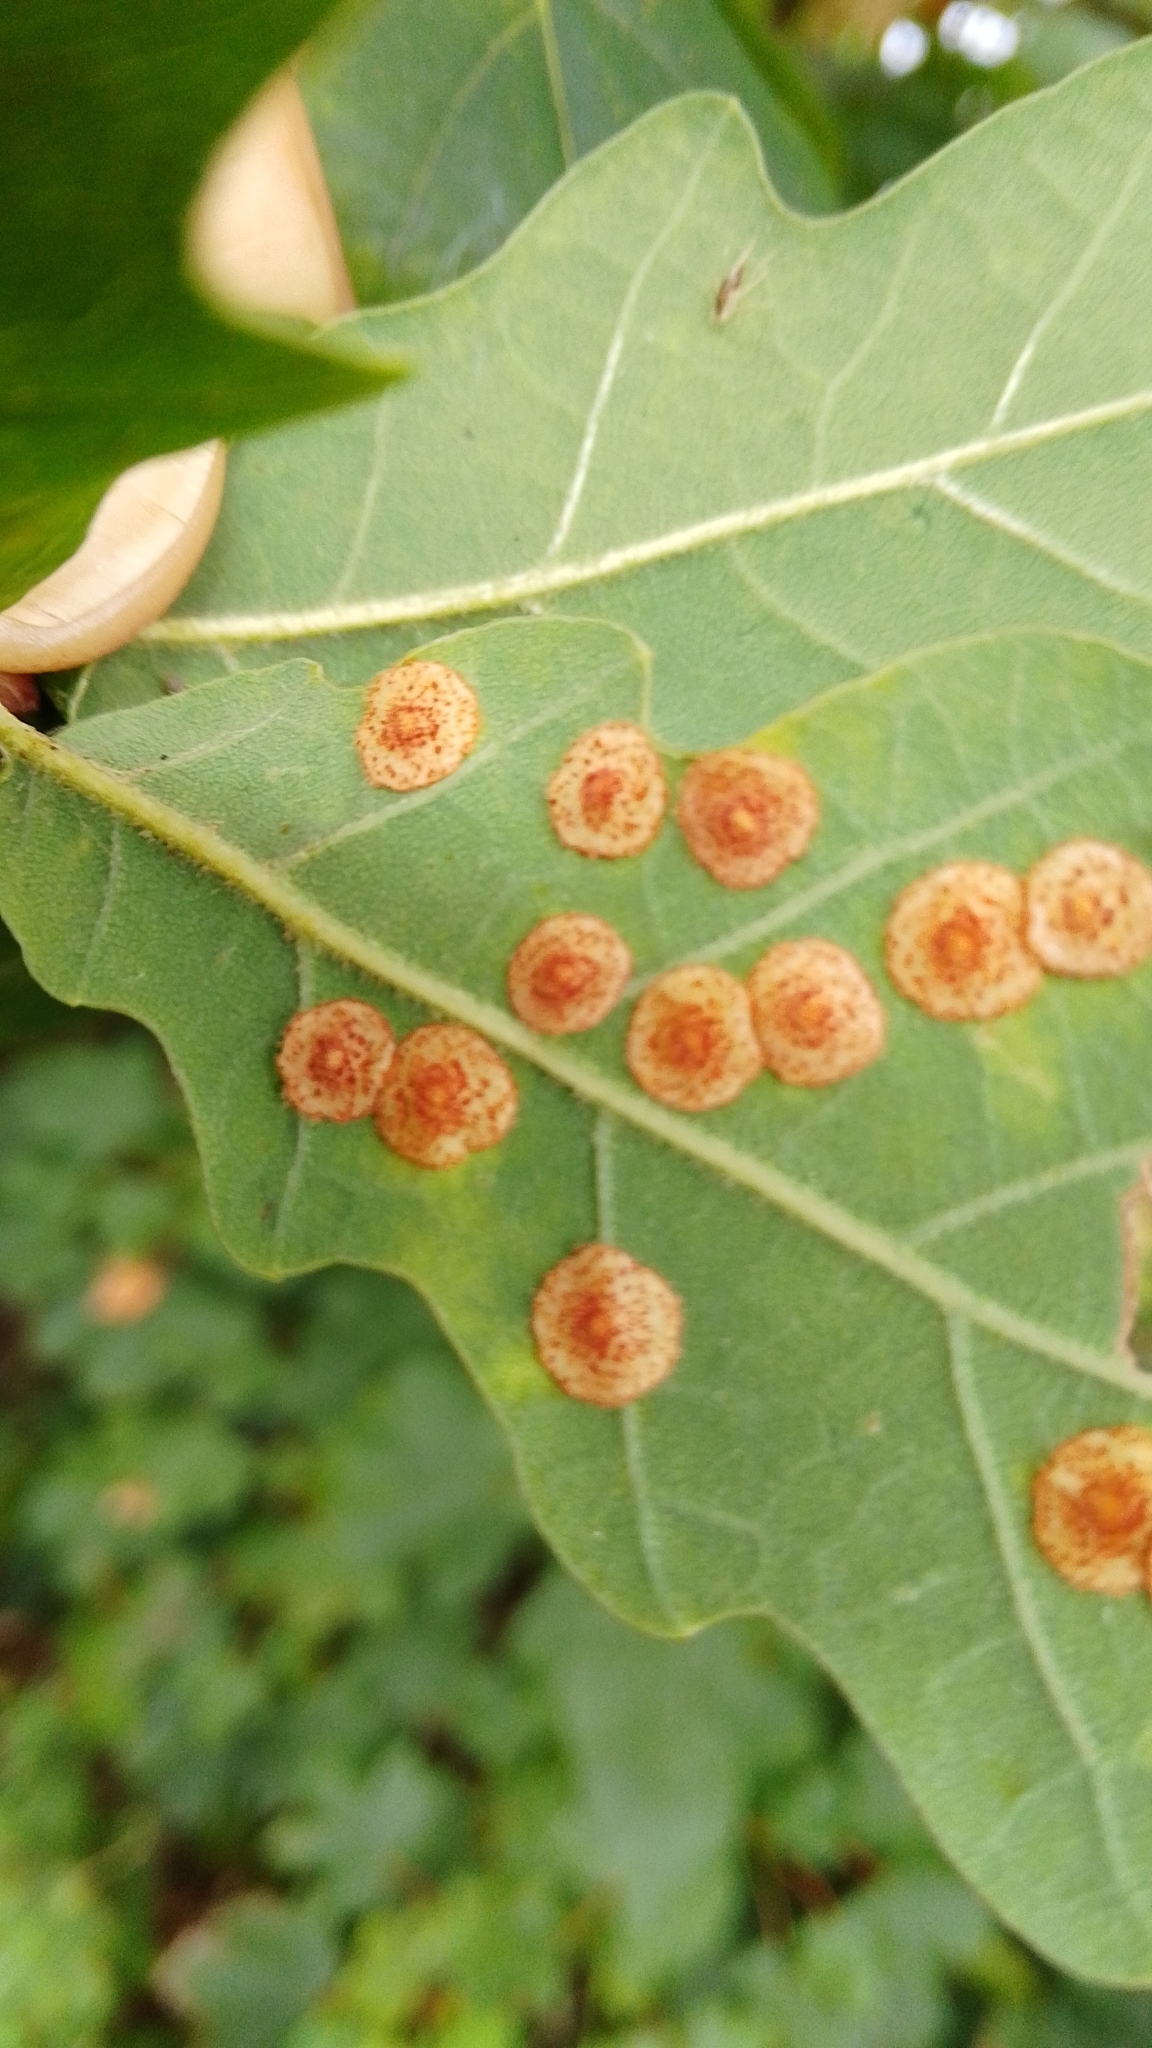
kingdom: Animalia
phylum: Arthropoda
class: Insecta
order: Hymenoptera
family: Cynipidae
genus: Neuroterus
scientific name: Neuroterus quercusbaccarum
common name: Common spangle gall
